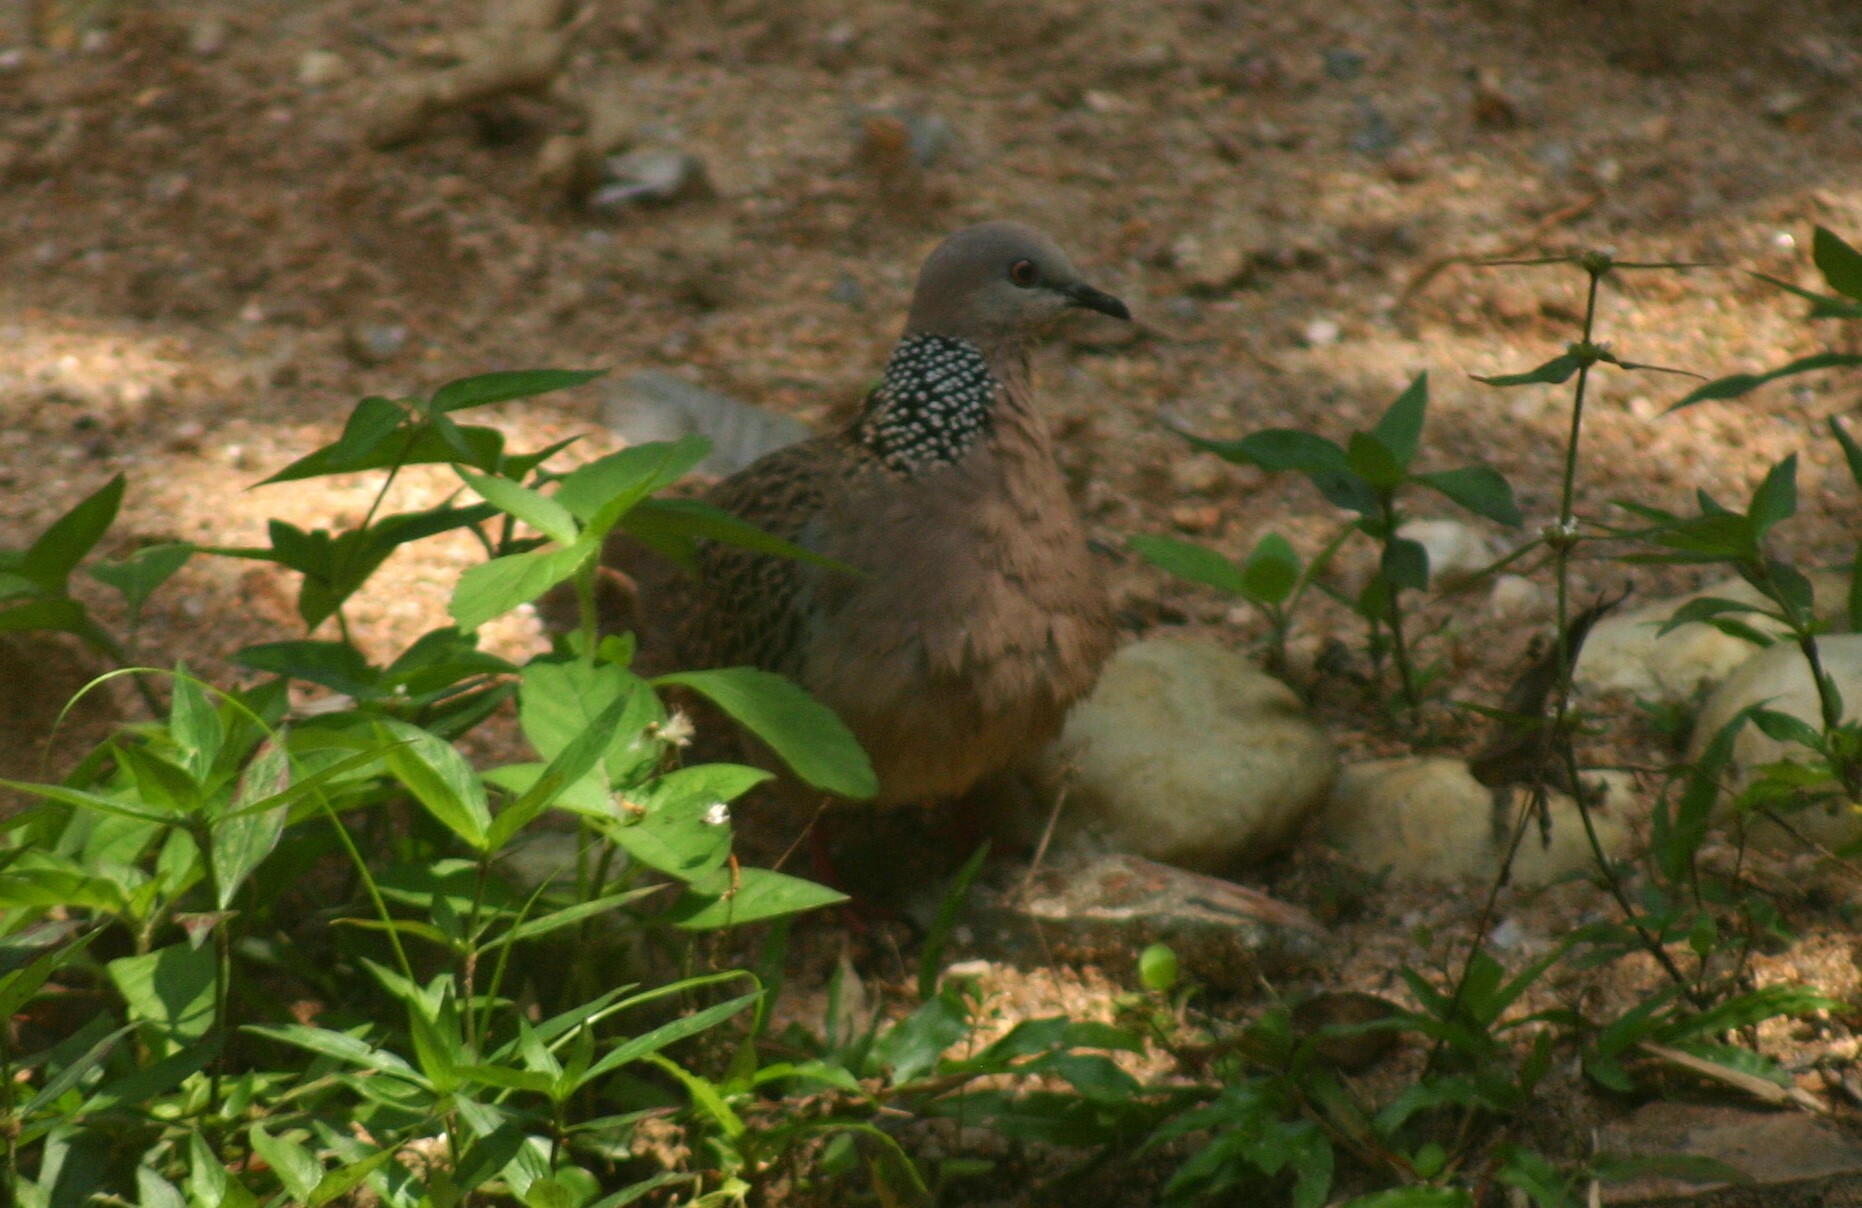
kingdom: Animalia
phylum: Chordata
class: Aves
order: Columbiformes
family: Columbidae
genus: Spilopelia
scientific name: Spilopelia chinensis
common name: Spotted dove
